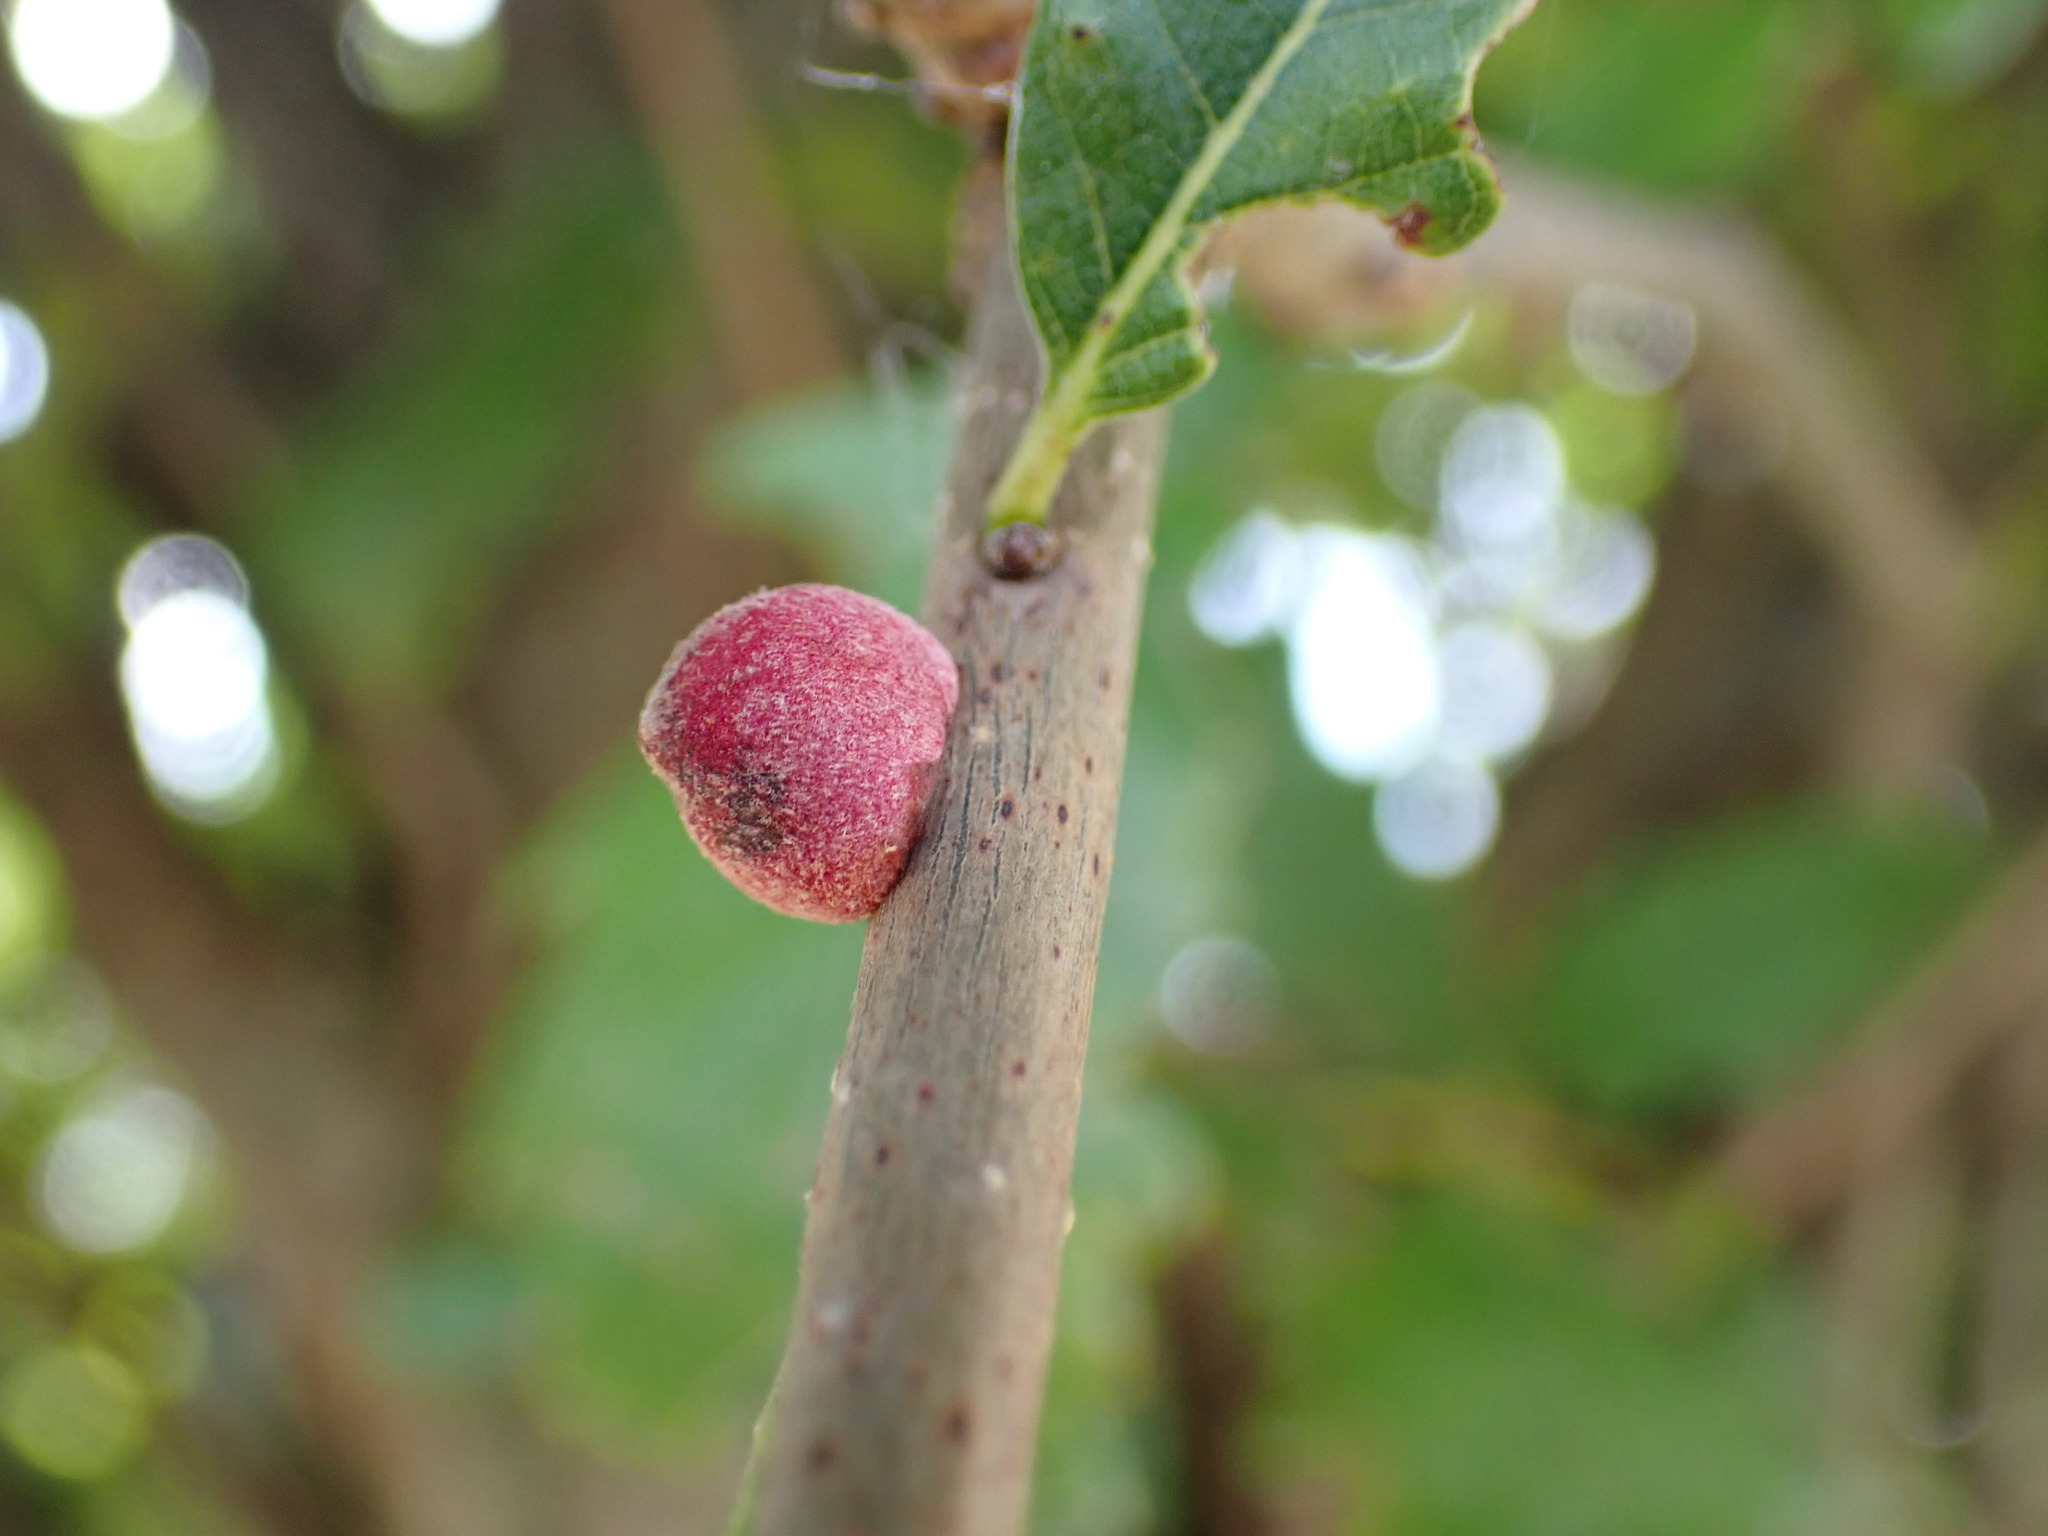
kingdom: Animalia
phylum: Arthropoda
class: Insecta
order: Hymenoptera
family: Cynipidae
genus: Disholcaspis
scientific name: Disholcaspis
